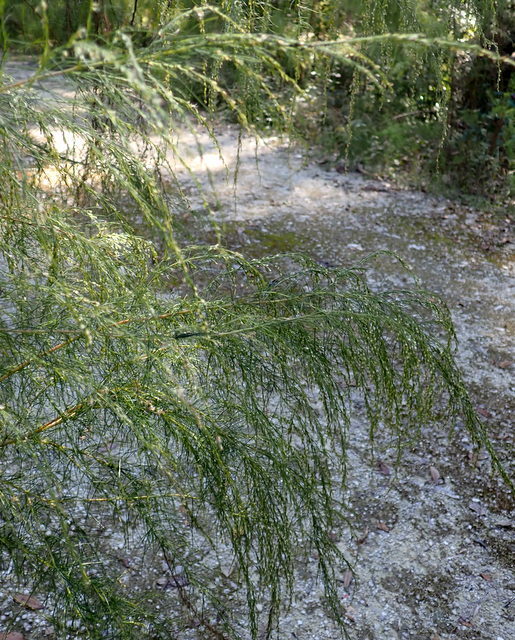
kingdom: Plantae
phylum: Tracheophyta
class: Magnoliopsida
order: Asterales
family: Asteraceae
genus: Eupatorium
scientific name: Eupatorium capillifolium
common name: Dog-fennel
